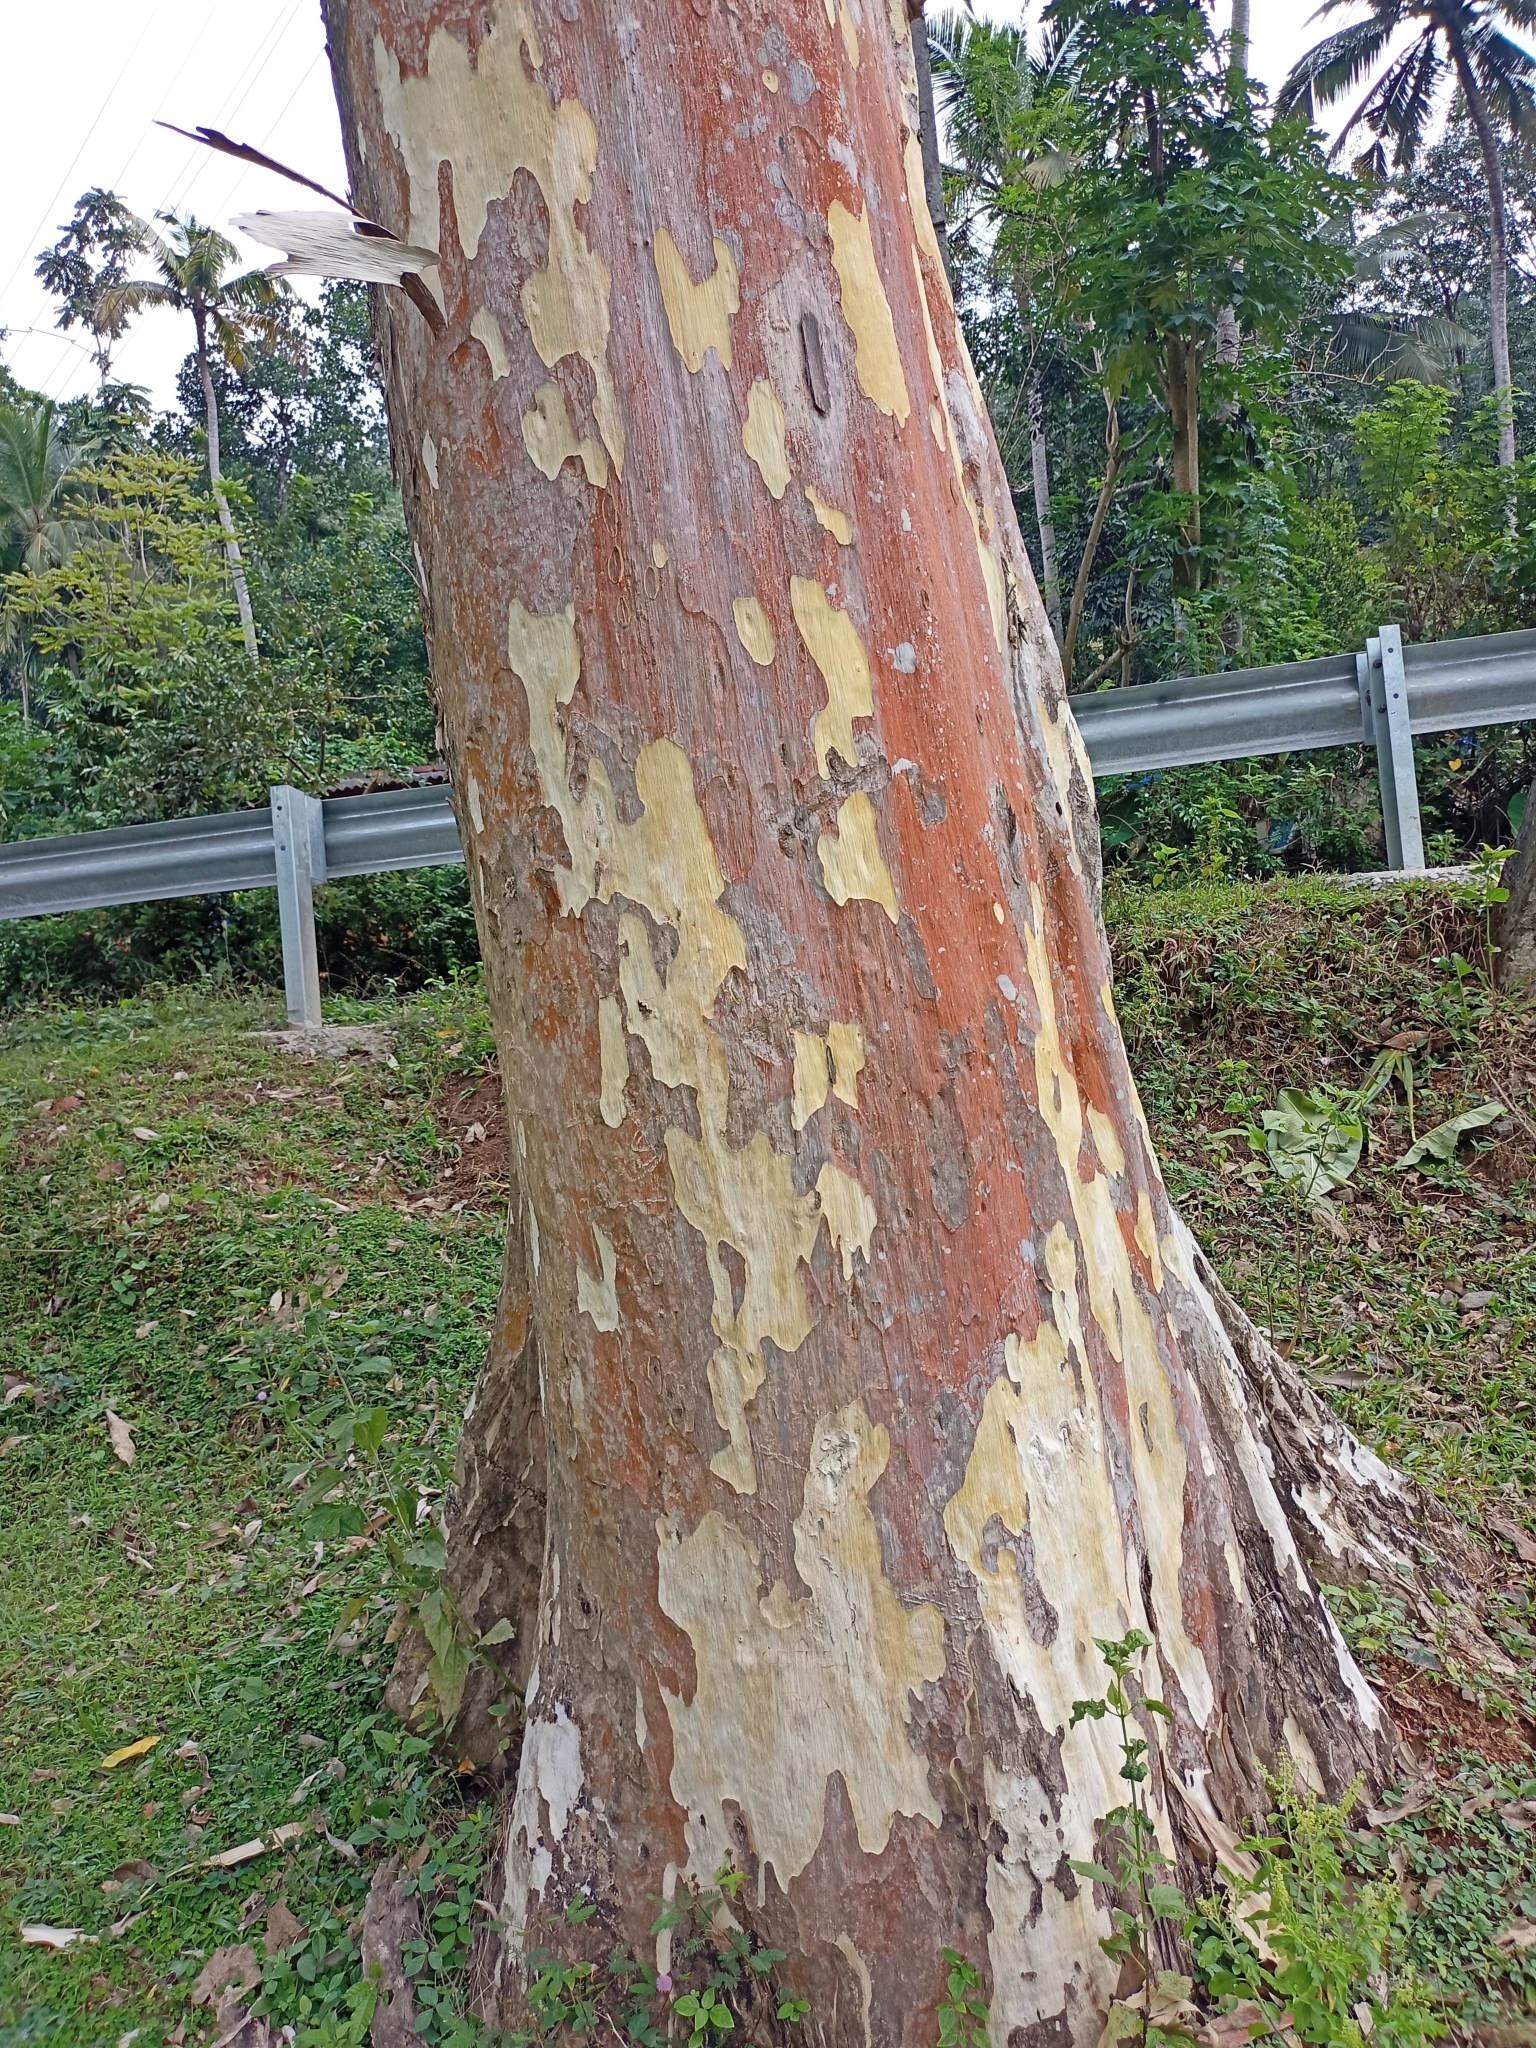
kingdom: Plantae
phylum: Tracheophyta
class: Magnoliopsida
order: Myrtales
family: Lythraceae
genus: Lagerstroemia
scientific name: Lagerstroemia speciosa
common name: Queen's crape-myrtle
